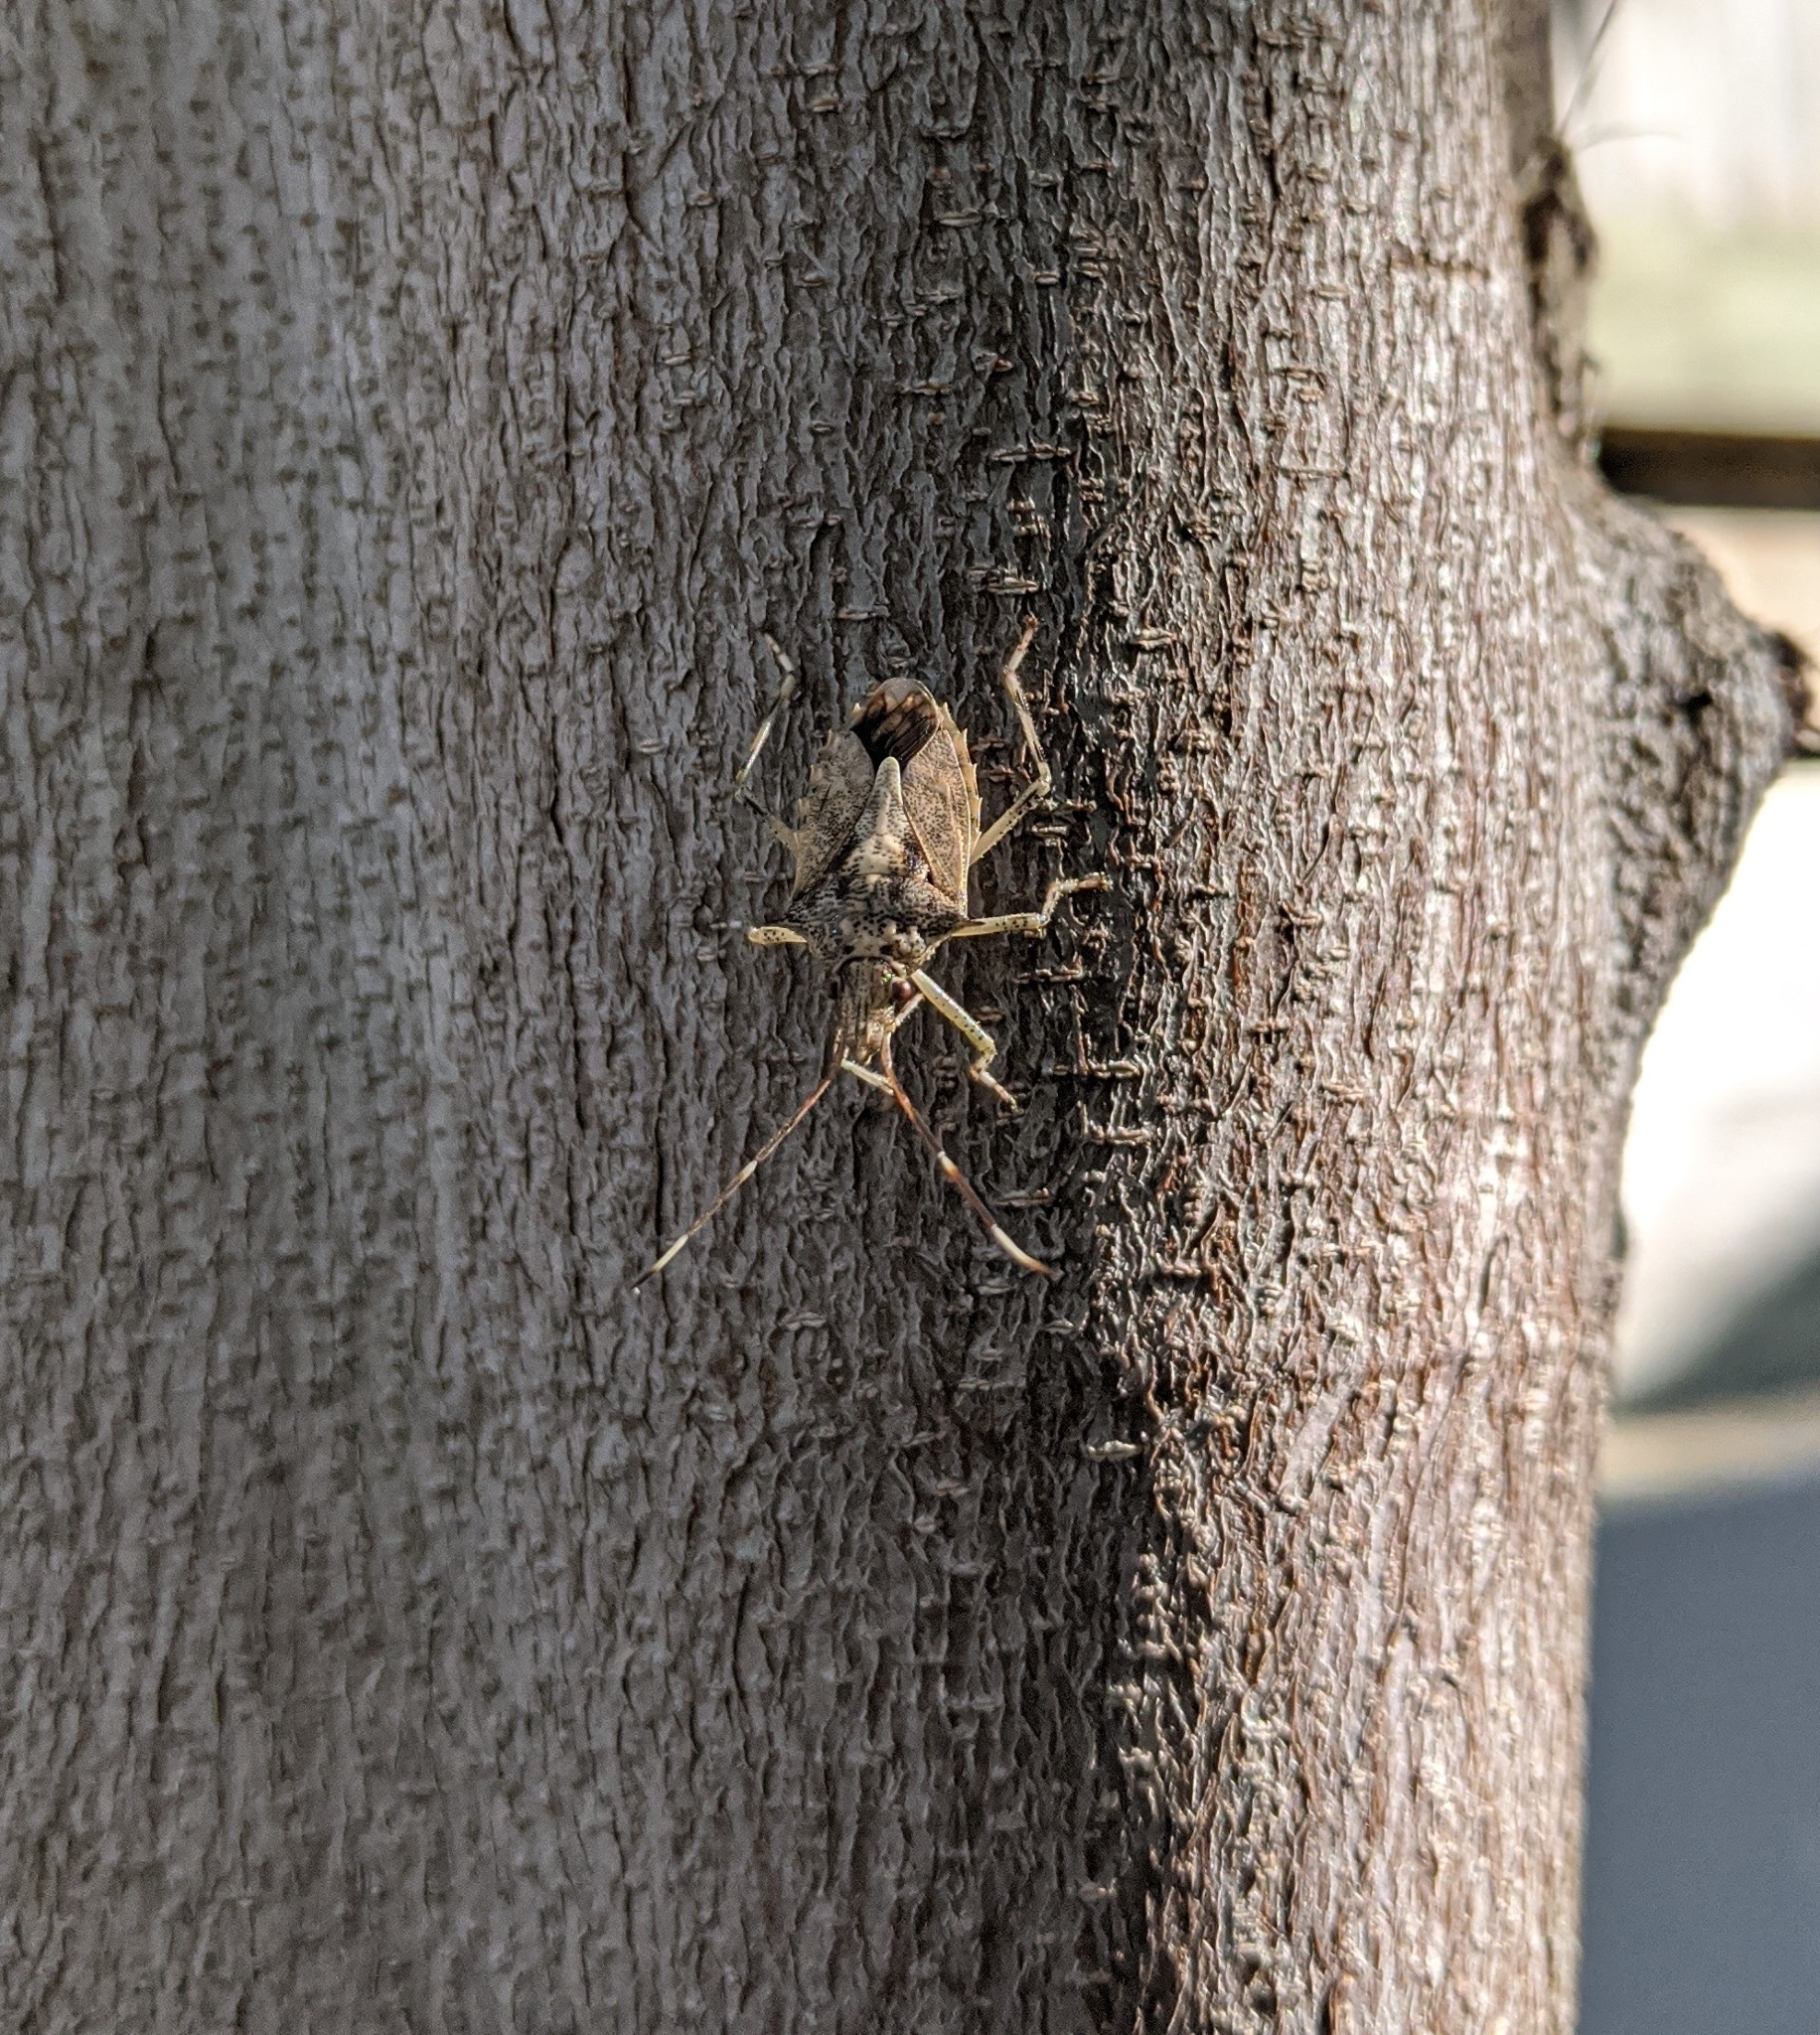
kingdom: Animalia
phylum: Arthropoda
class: Insecta
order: Hemiptera
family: Pentatomidae
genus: Bromocoris
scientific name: Bromocoris
